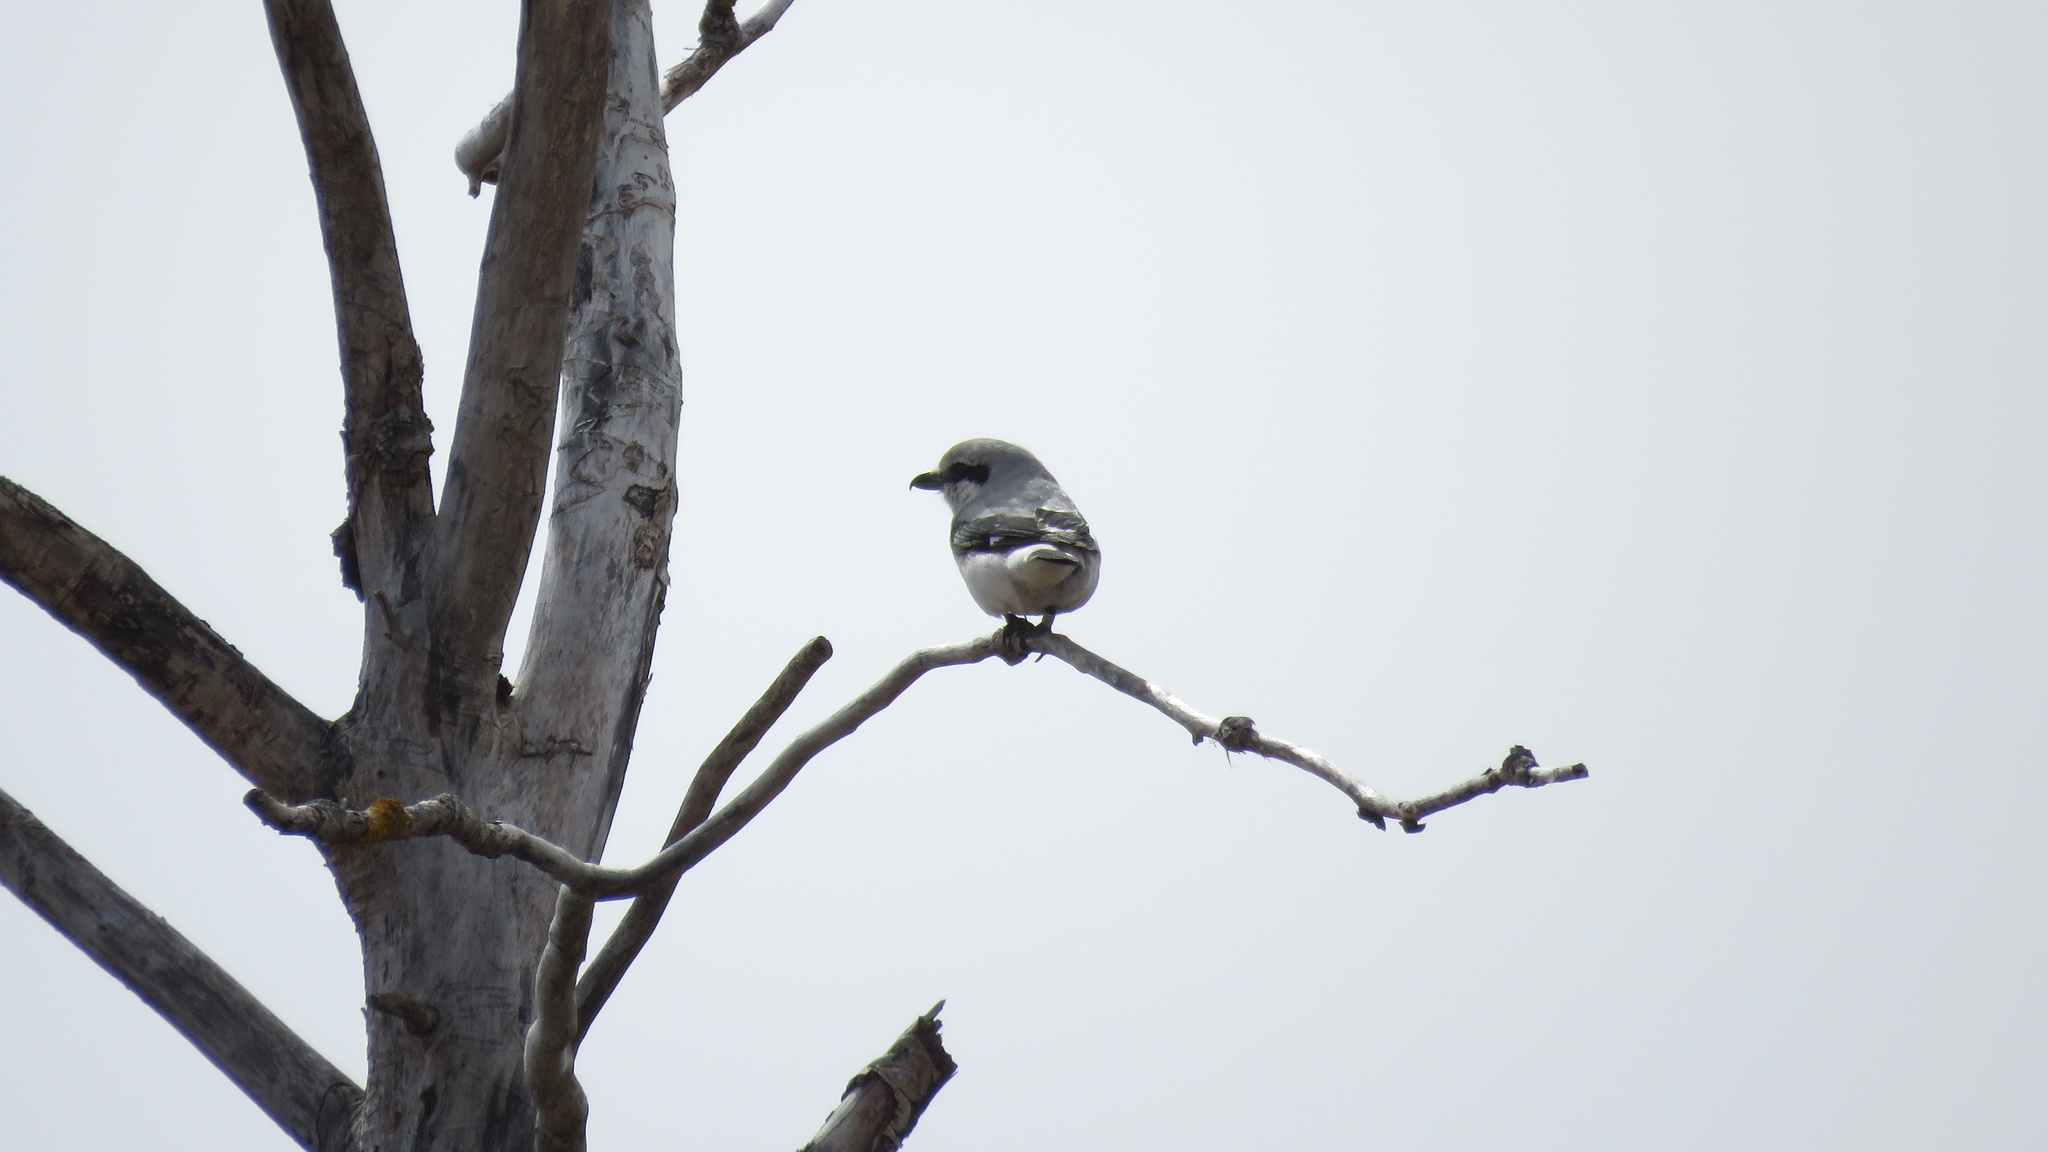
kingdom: Animalia
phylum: Chordata
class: Aves
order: Passeriformes
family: Laniidae
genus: Lanius
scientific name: Lanius borealis
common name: Northern shrike
